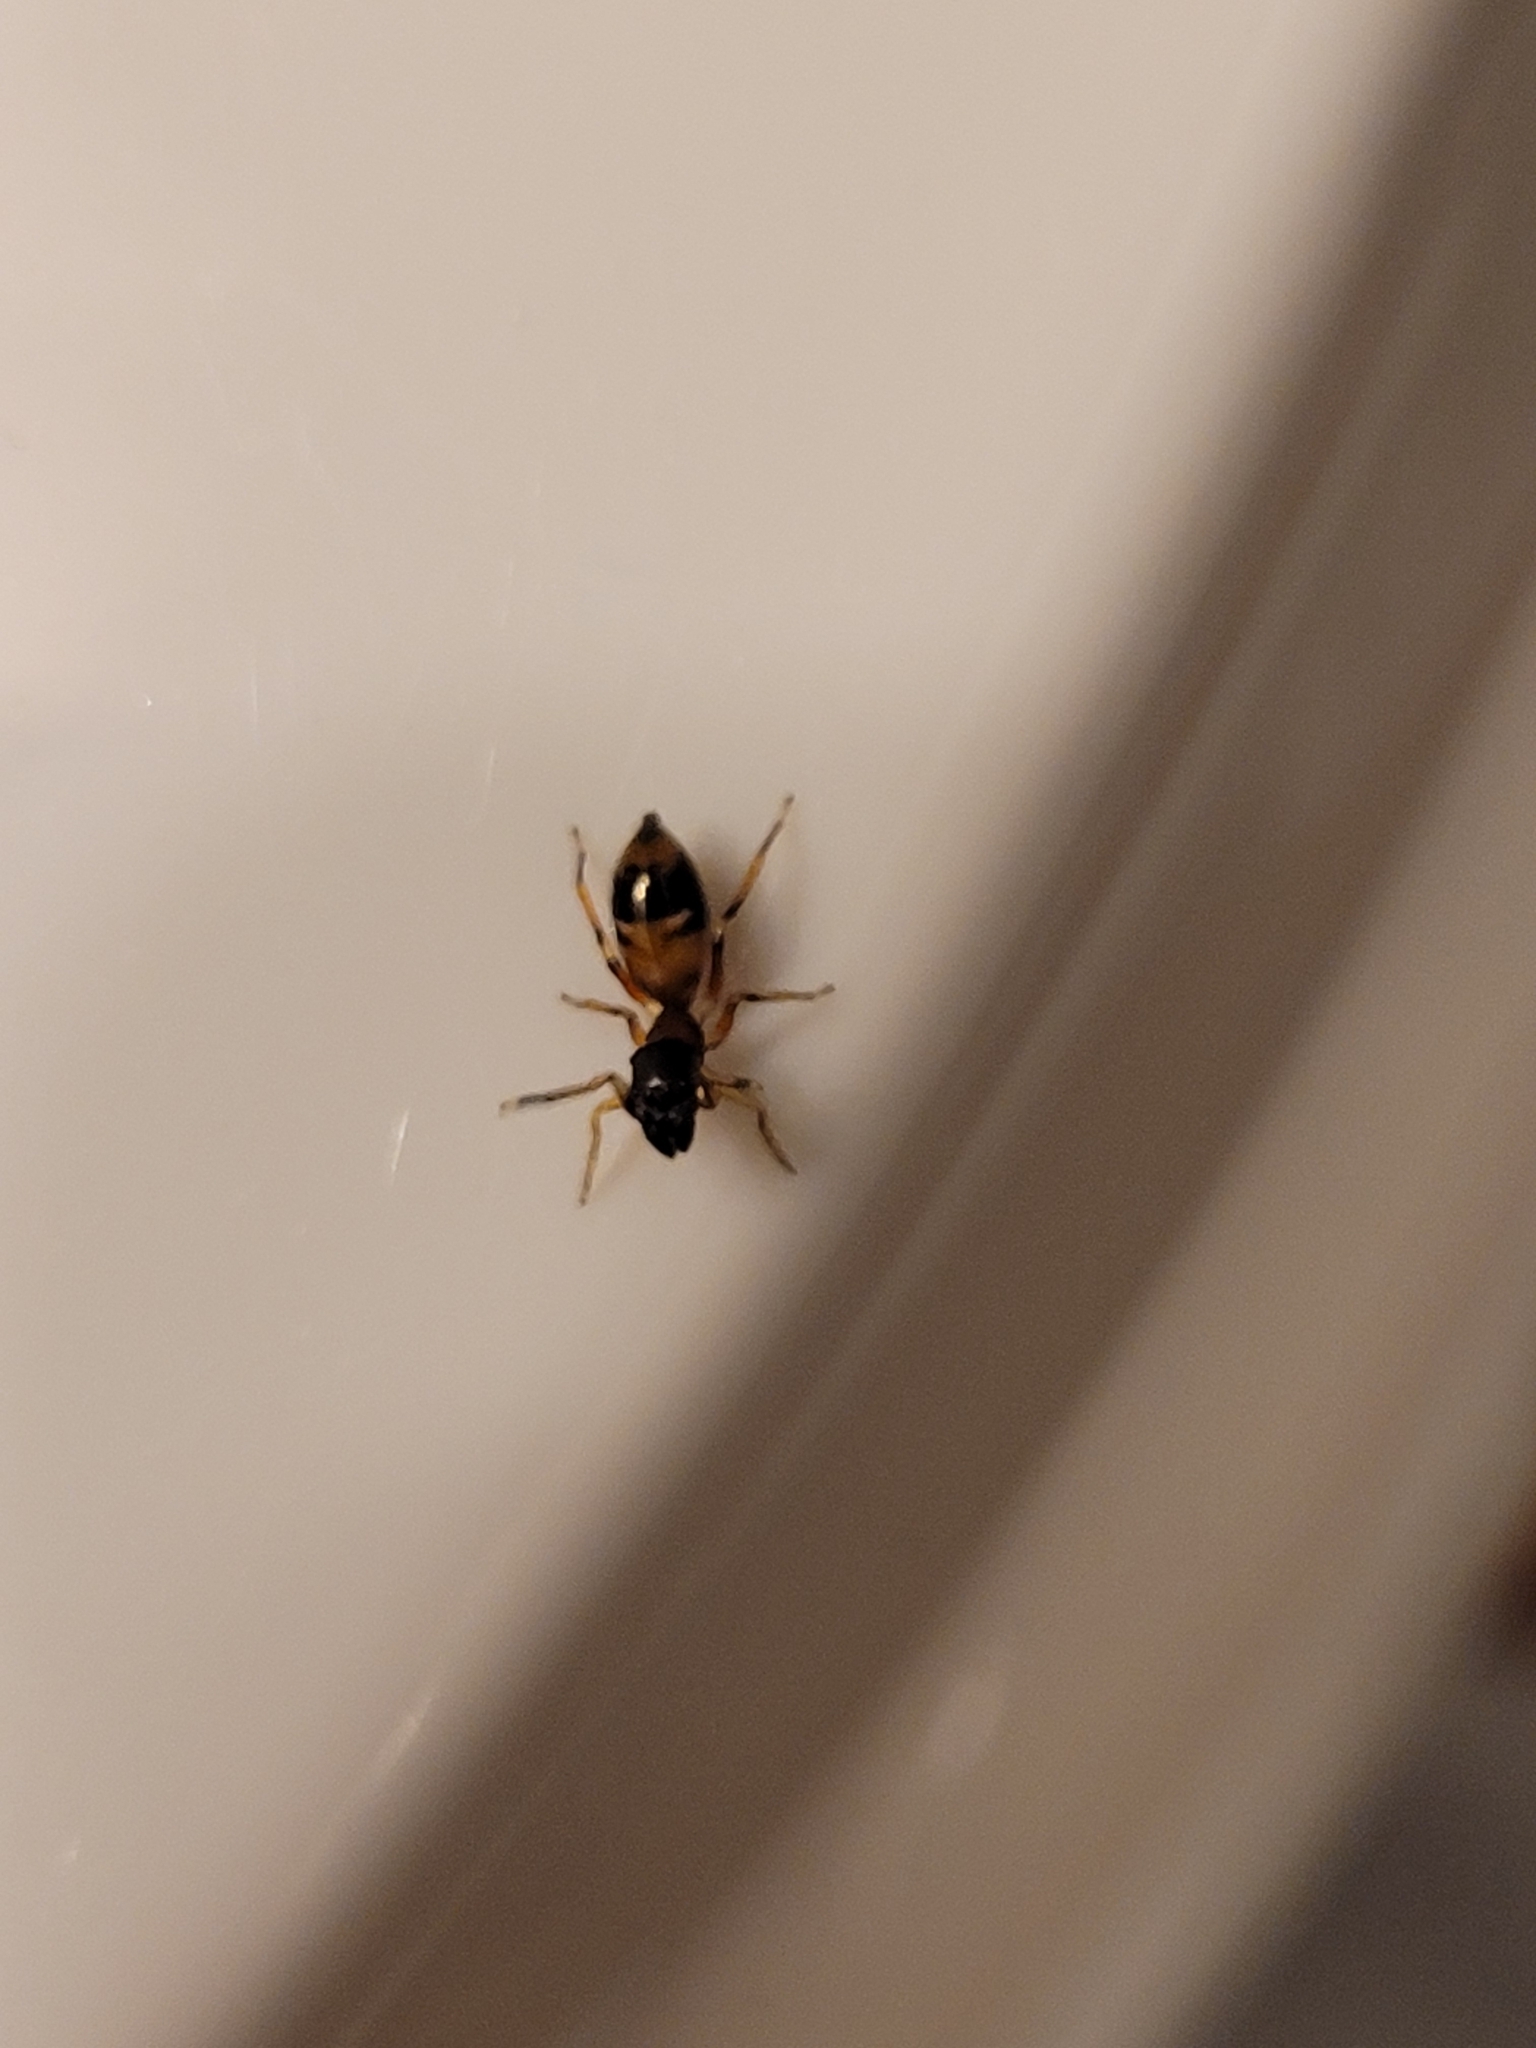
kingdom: Animalia
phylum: Arthropoda
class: Arachnida
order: Araneae
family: Salticidae
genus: Myrmarachne
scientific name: Myrmarachne formicaria
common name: Ant mimic jumping spider
